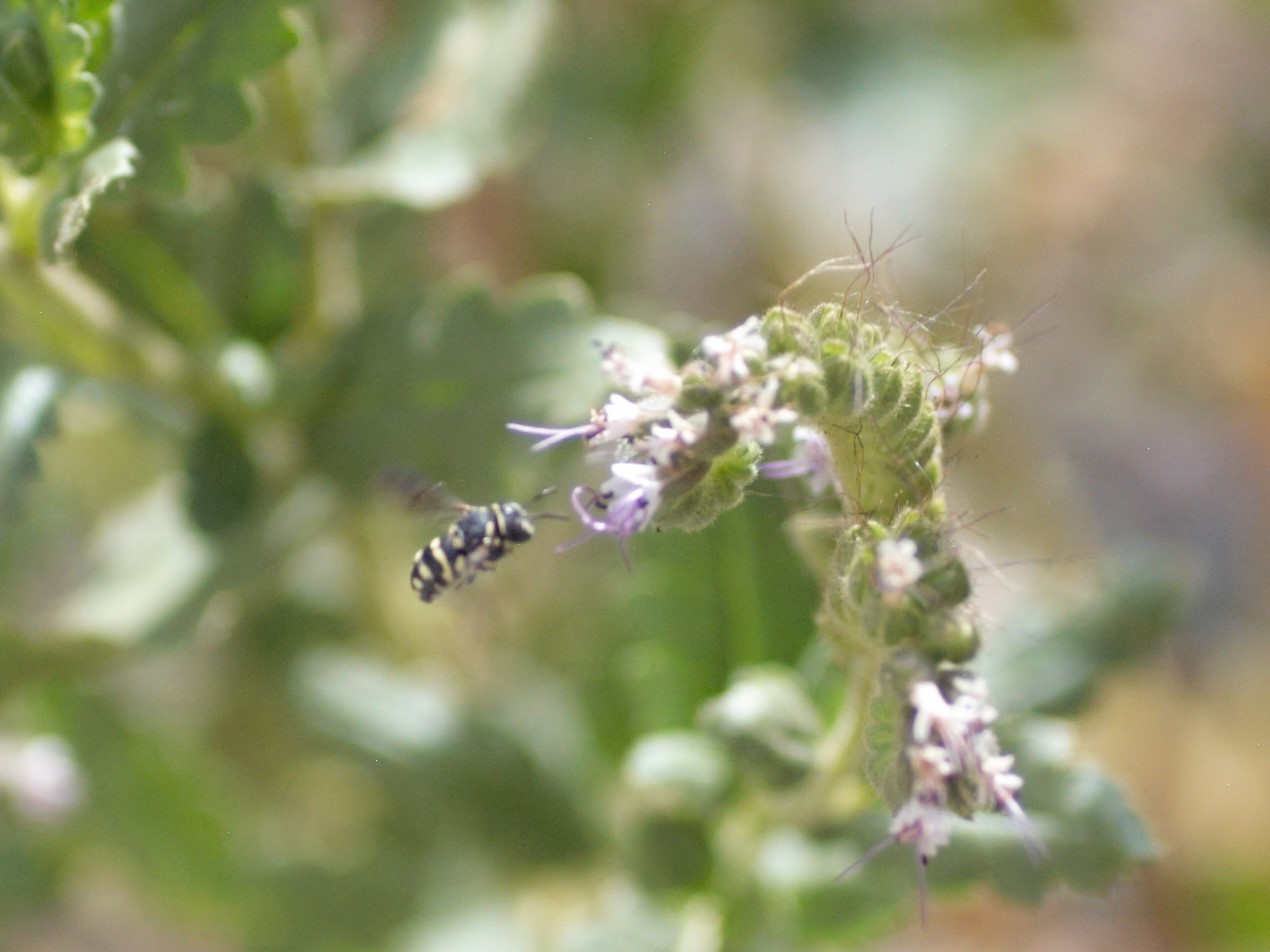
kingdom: Animalia
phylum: Arthropoda
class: Insecta
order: Hymenoptera
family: Megachilidae
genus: Anthidiellum
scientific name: Anthidiellum notatum
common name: Northern rotund-resin bee
